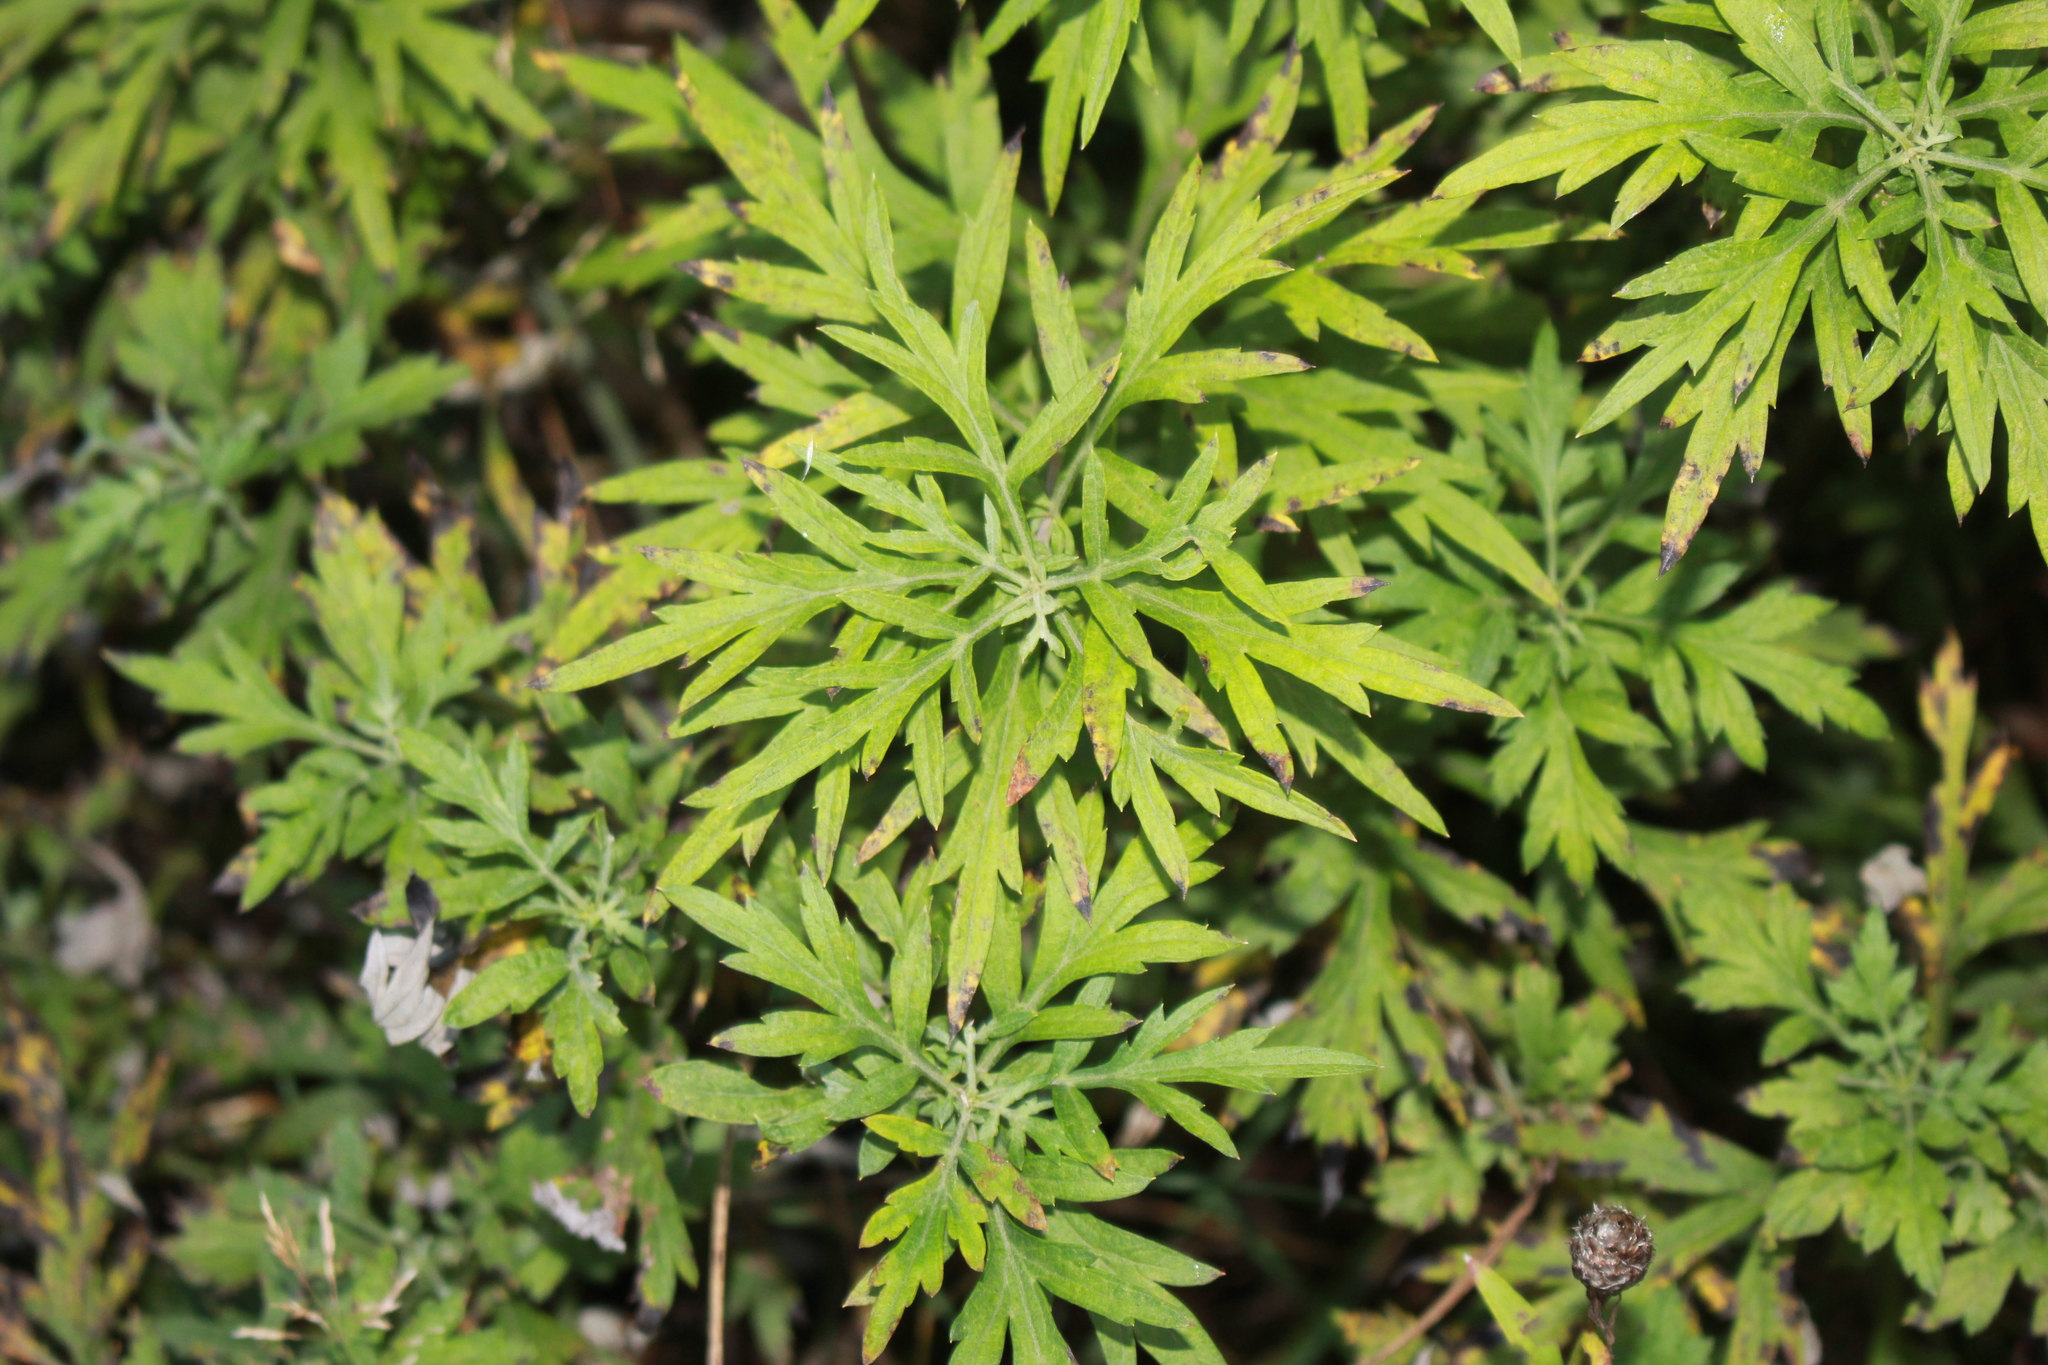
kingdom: Plantae
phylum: Tracheophyta
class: Magnoliopsida
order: Asterales
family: Asteraceae
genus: Artemisia
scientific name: Artemisia vulgaris
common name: Mugwort
